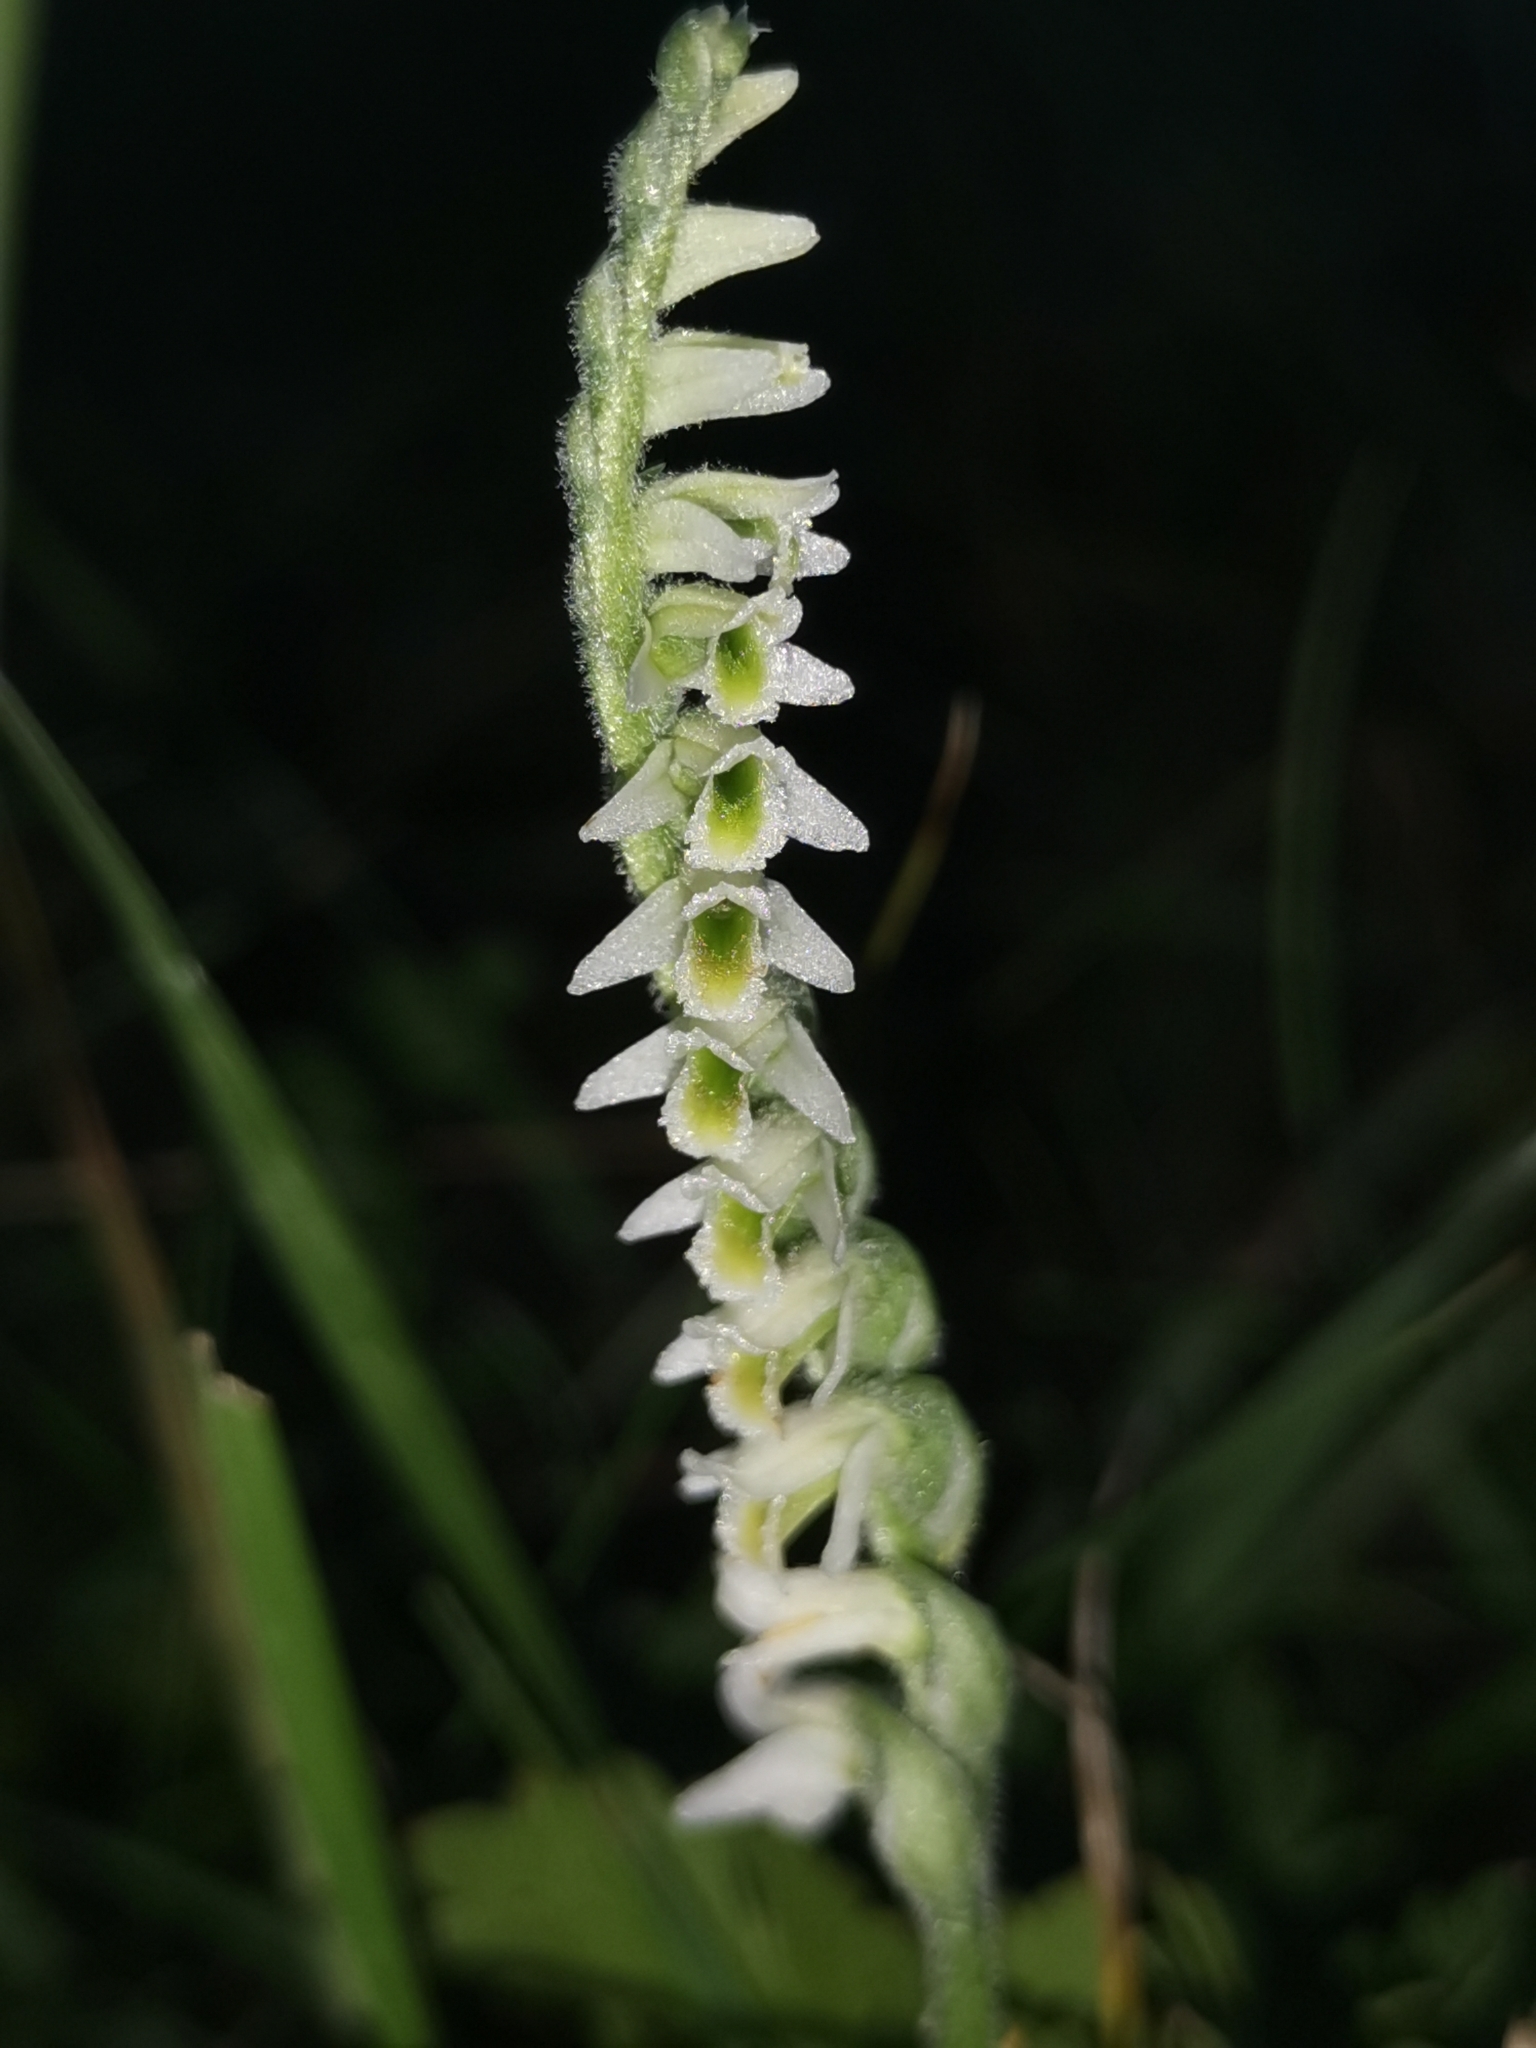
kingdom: Plantae
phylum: Tracheophyta
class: Liliopsida
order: Asparagales
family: Orchidaceae
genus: Spiranthes
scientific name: Spiranthes spiralis
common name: Autumn lady's-tresses
